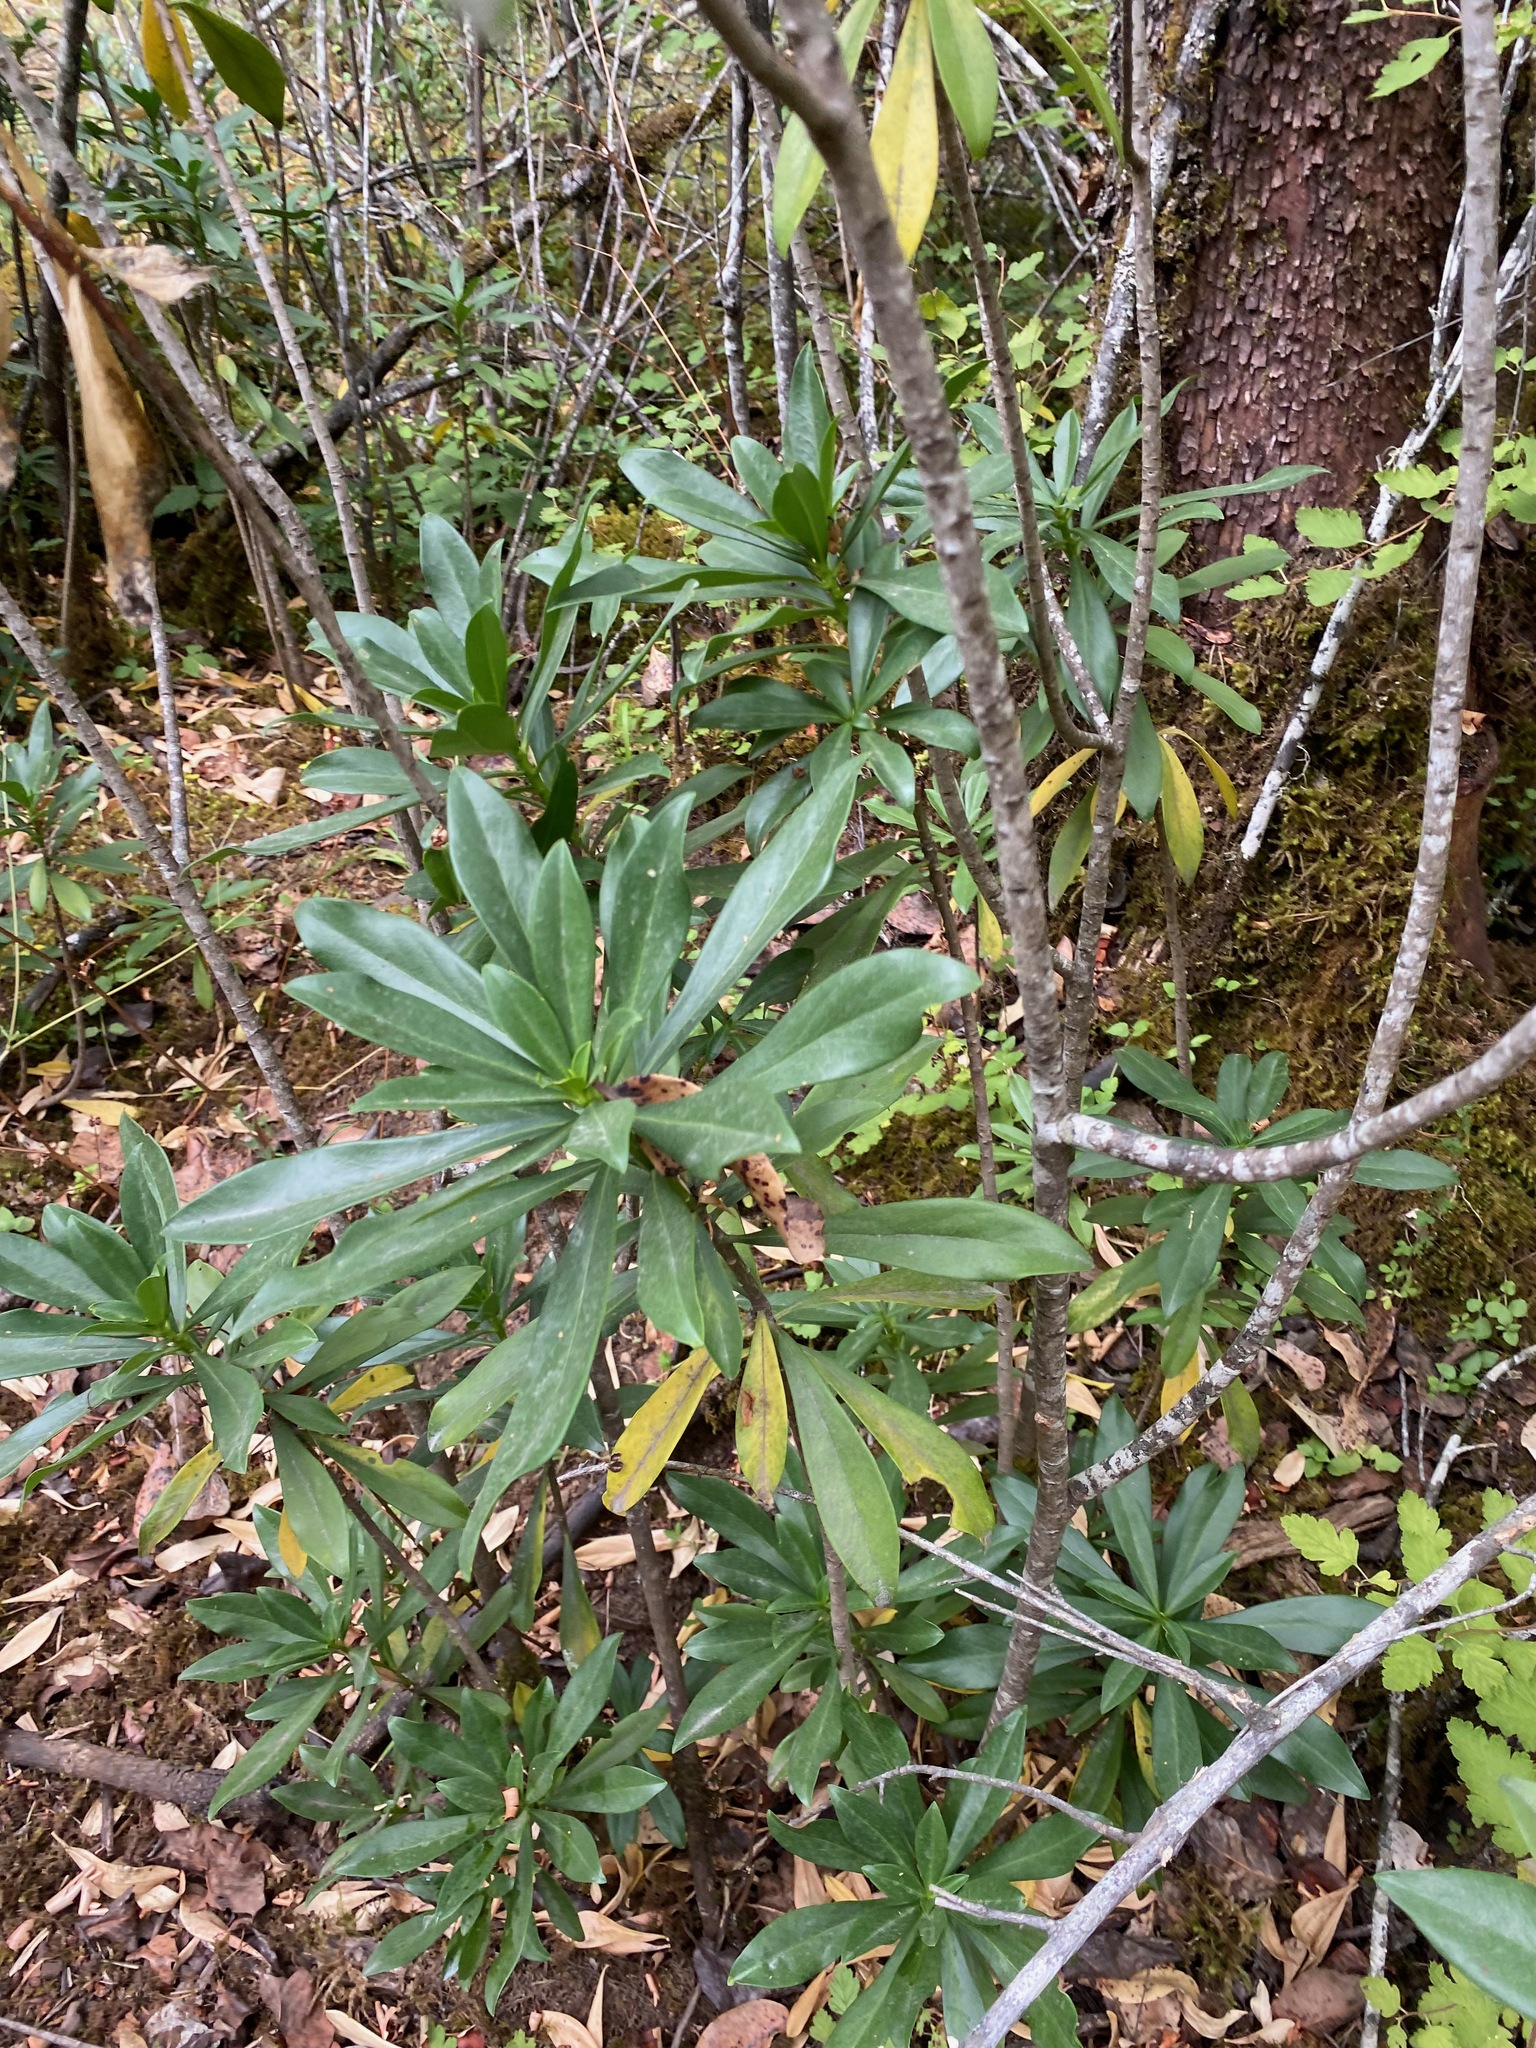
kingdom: Plantae
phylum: Tracheophyta
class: Magnoliopsida
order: Malvales
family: Thymelaeaceae
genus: Daphne
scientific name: Daphne laureola
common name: Spurge-laurel
